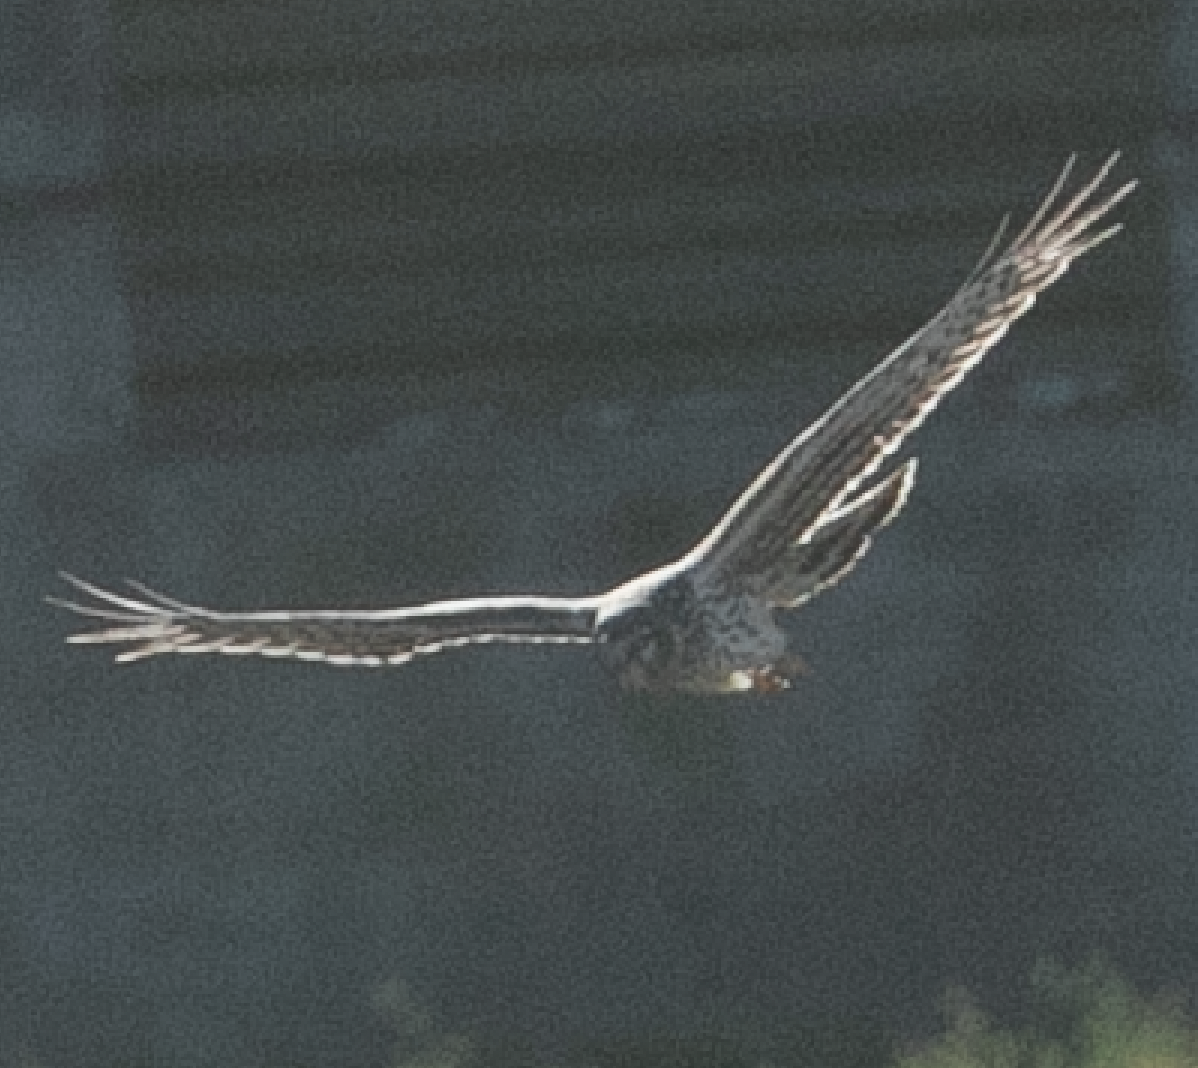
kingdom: Animalia
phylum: Chordata
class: Aves
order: Accipitriformes
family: Accipitridae
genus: Circus
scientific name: Circus cyaneus
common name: Hen harrier
